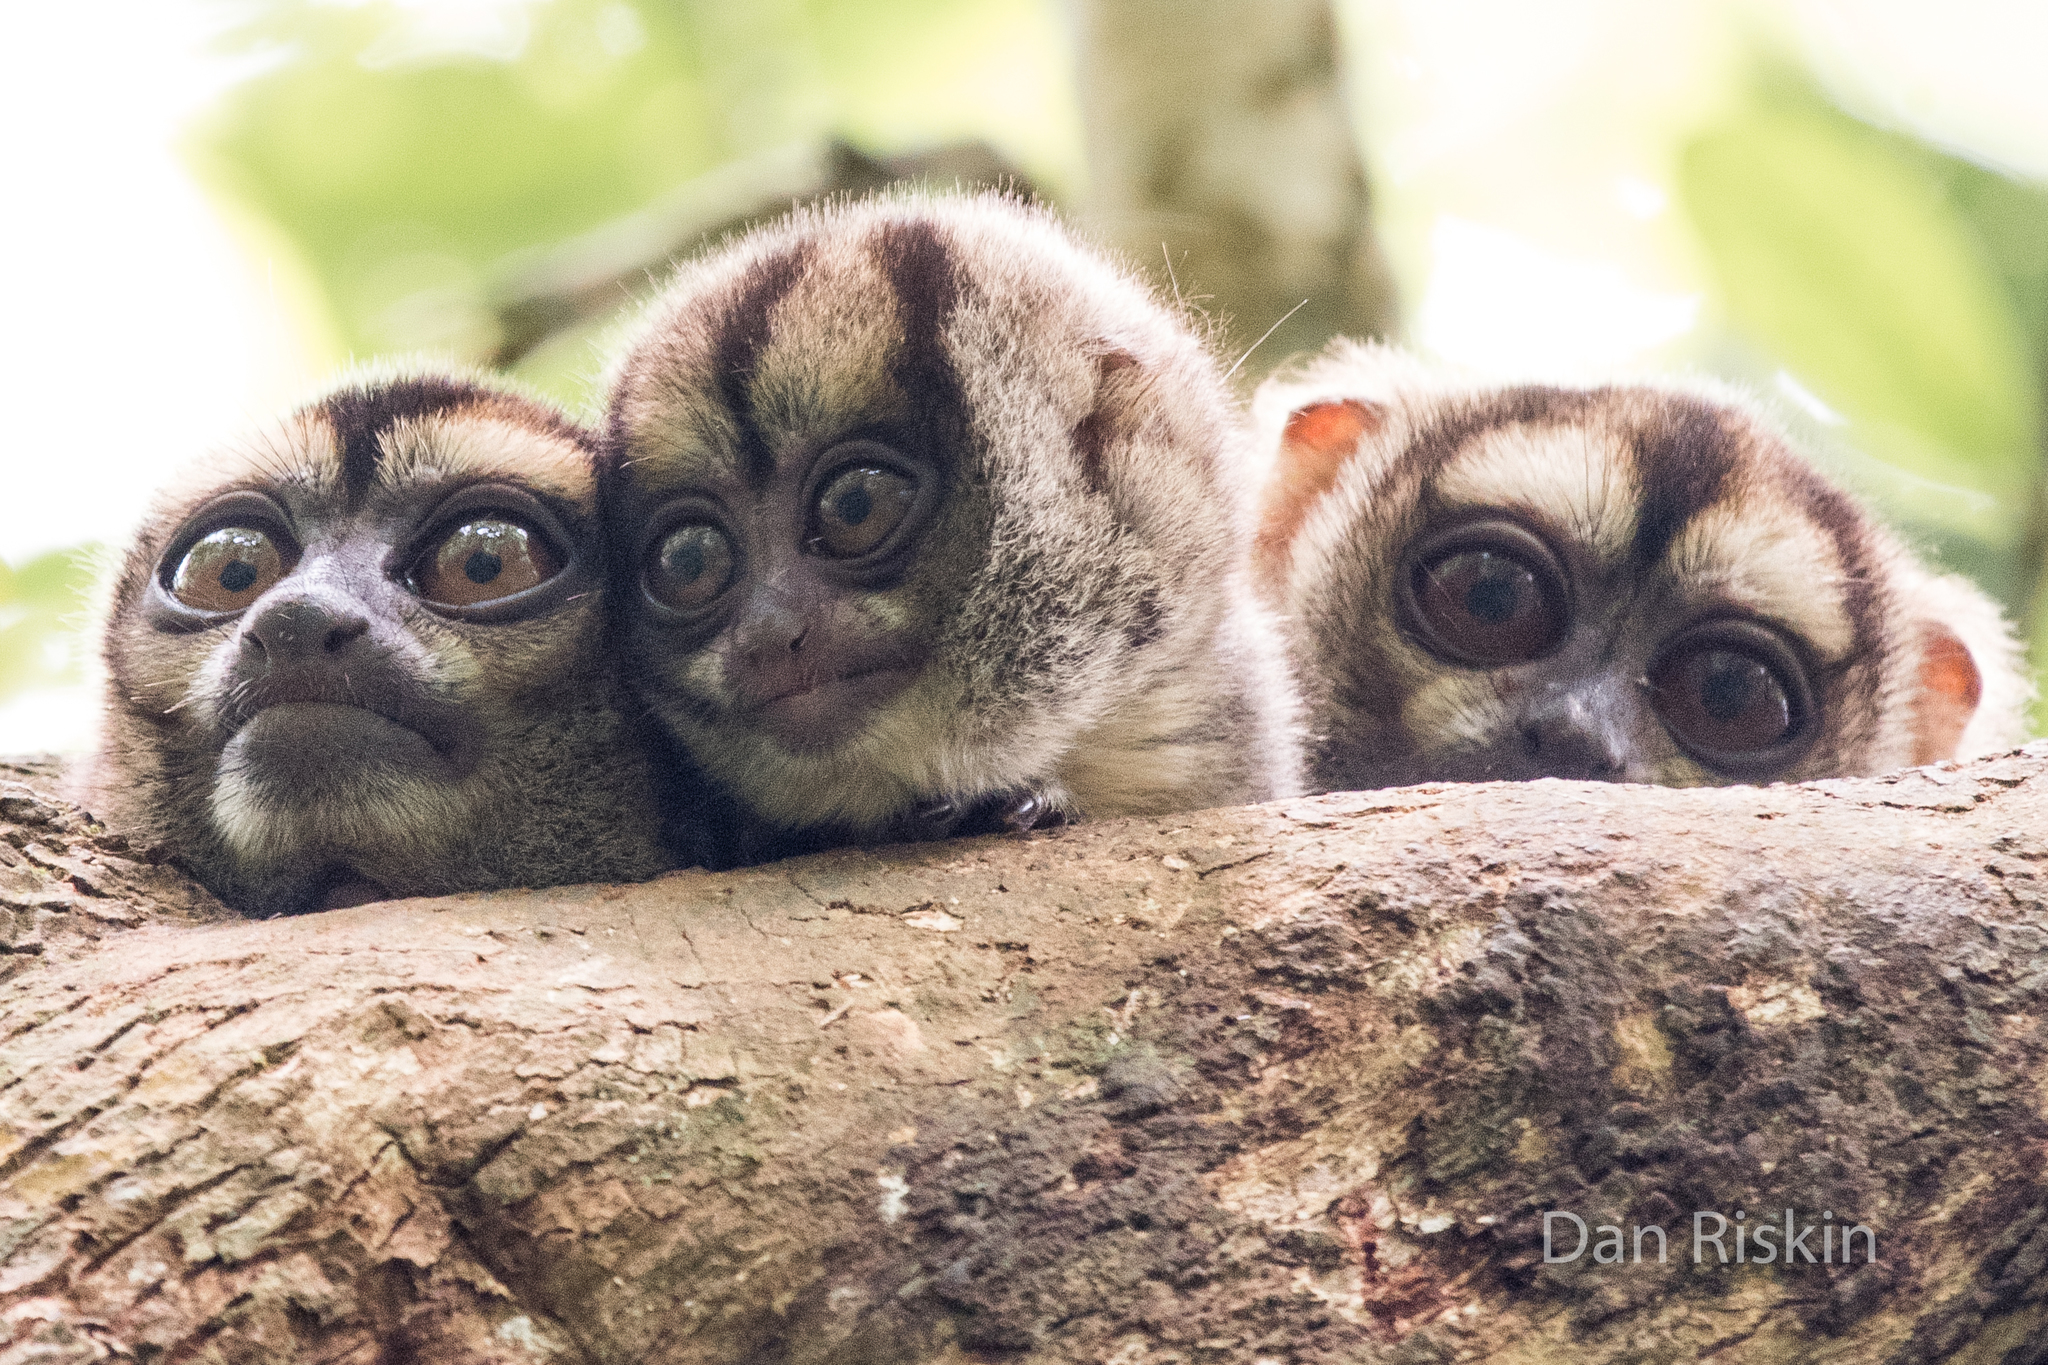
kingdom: Animalia
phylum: Chordata
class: Mammalia
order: Primates
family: Aotidae
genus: Aotus
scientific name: Aotus vociferans
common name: Noisy night monkey
